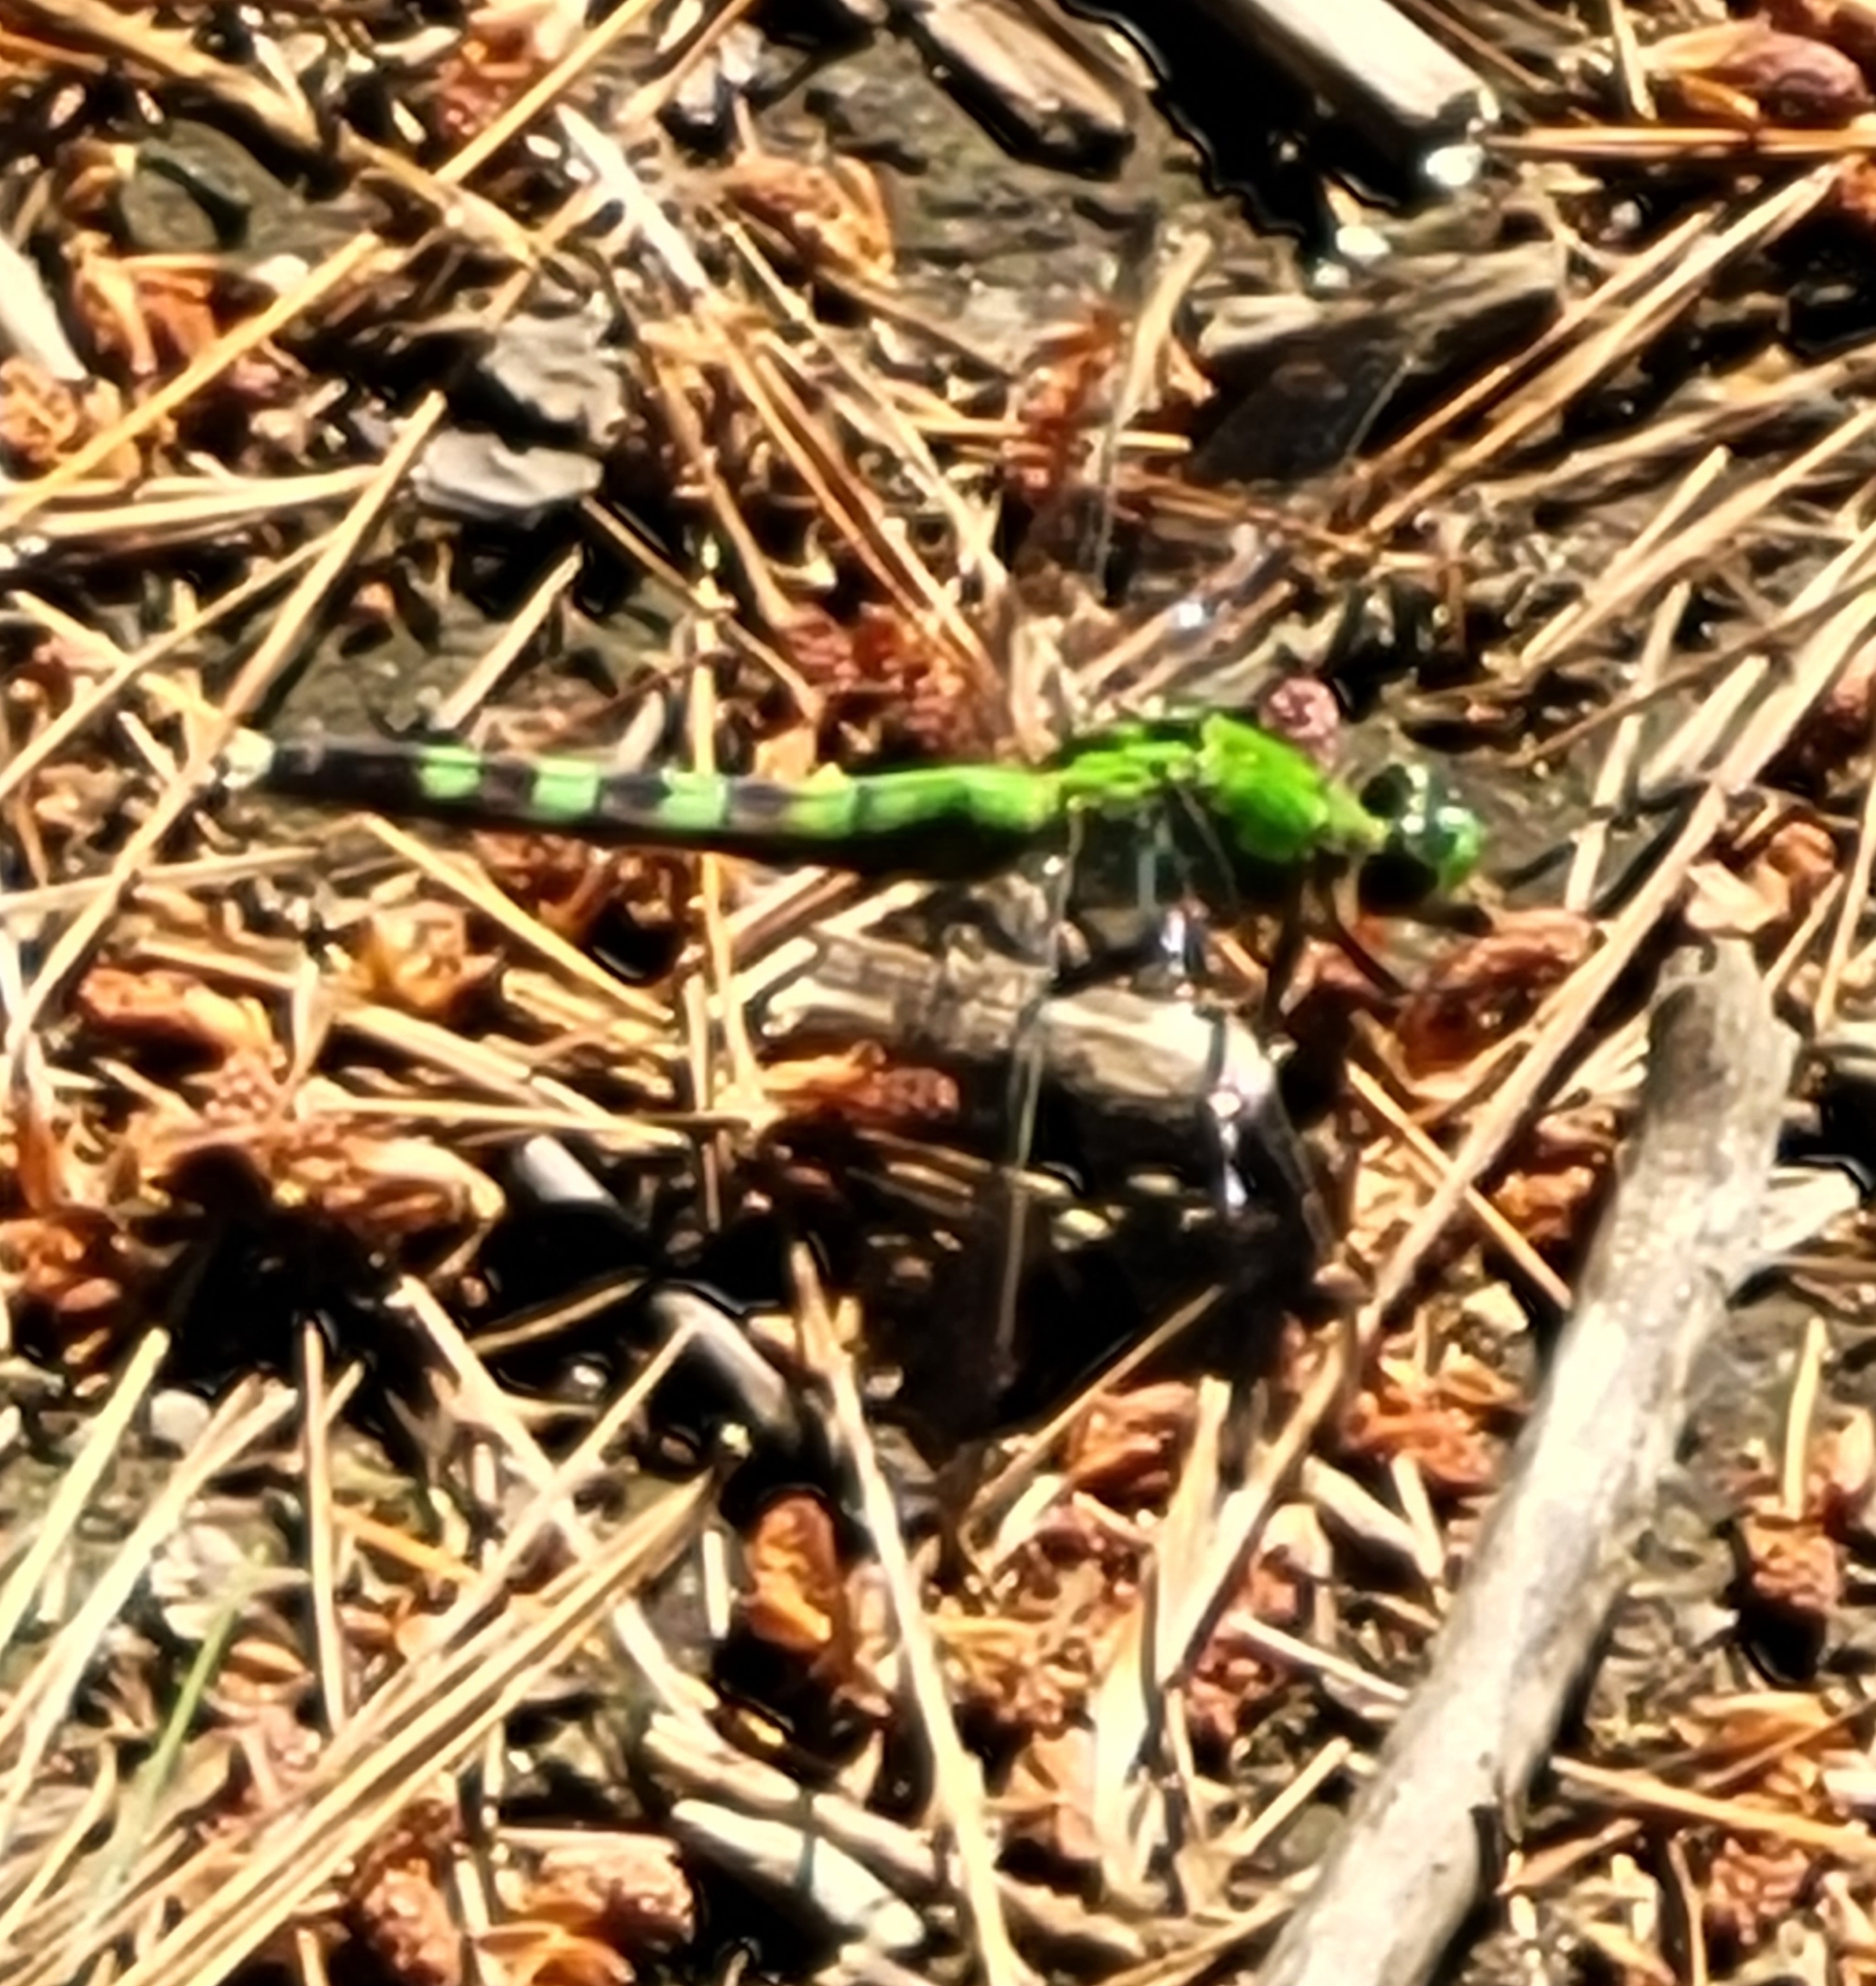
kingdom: Animalia
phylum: Arthropoda
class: Insecta
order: Odonata
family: Libellulidae
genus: Erythemis
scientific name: Erythemis simplicicollis
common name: Eastern pondhawk
